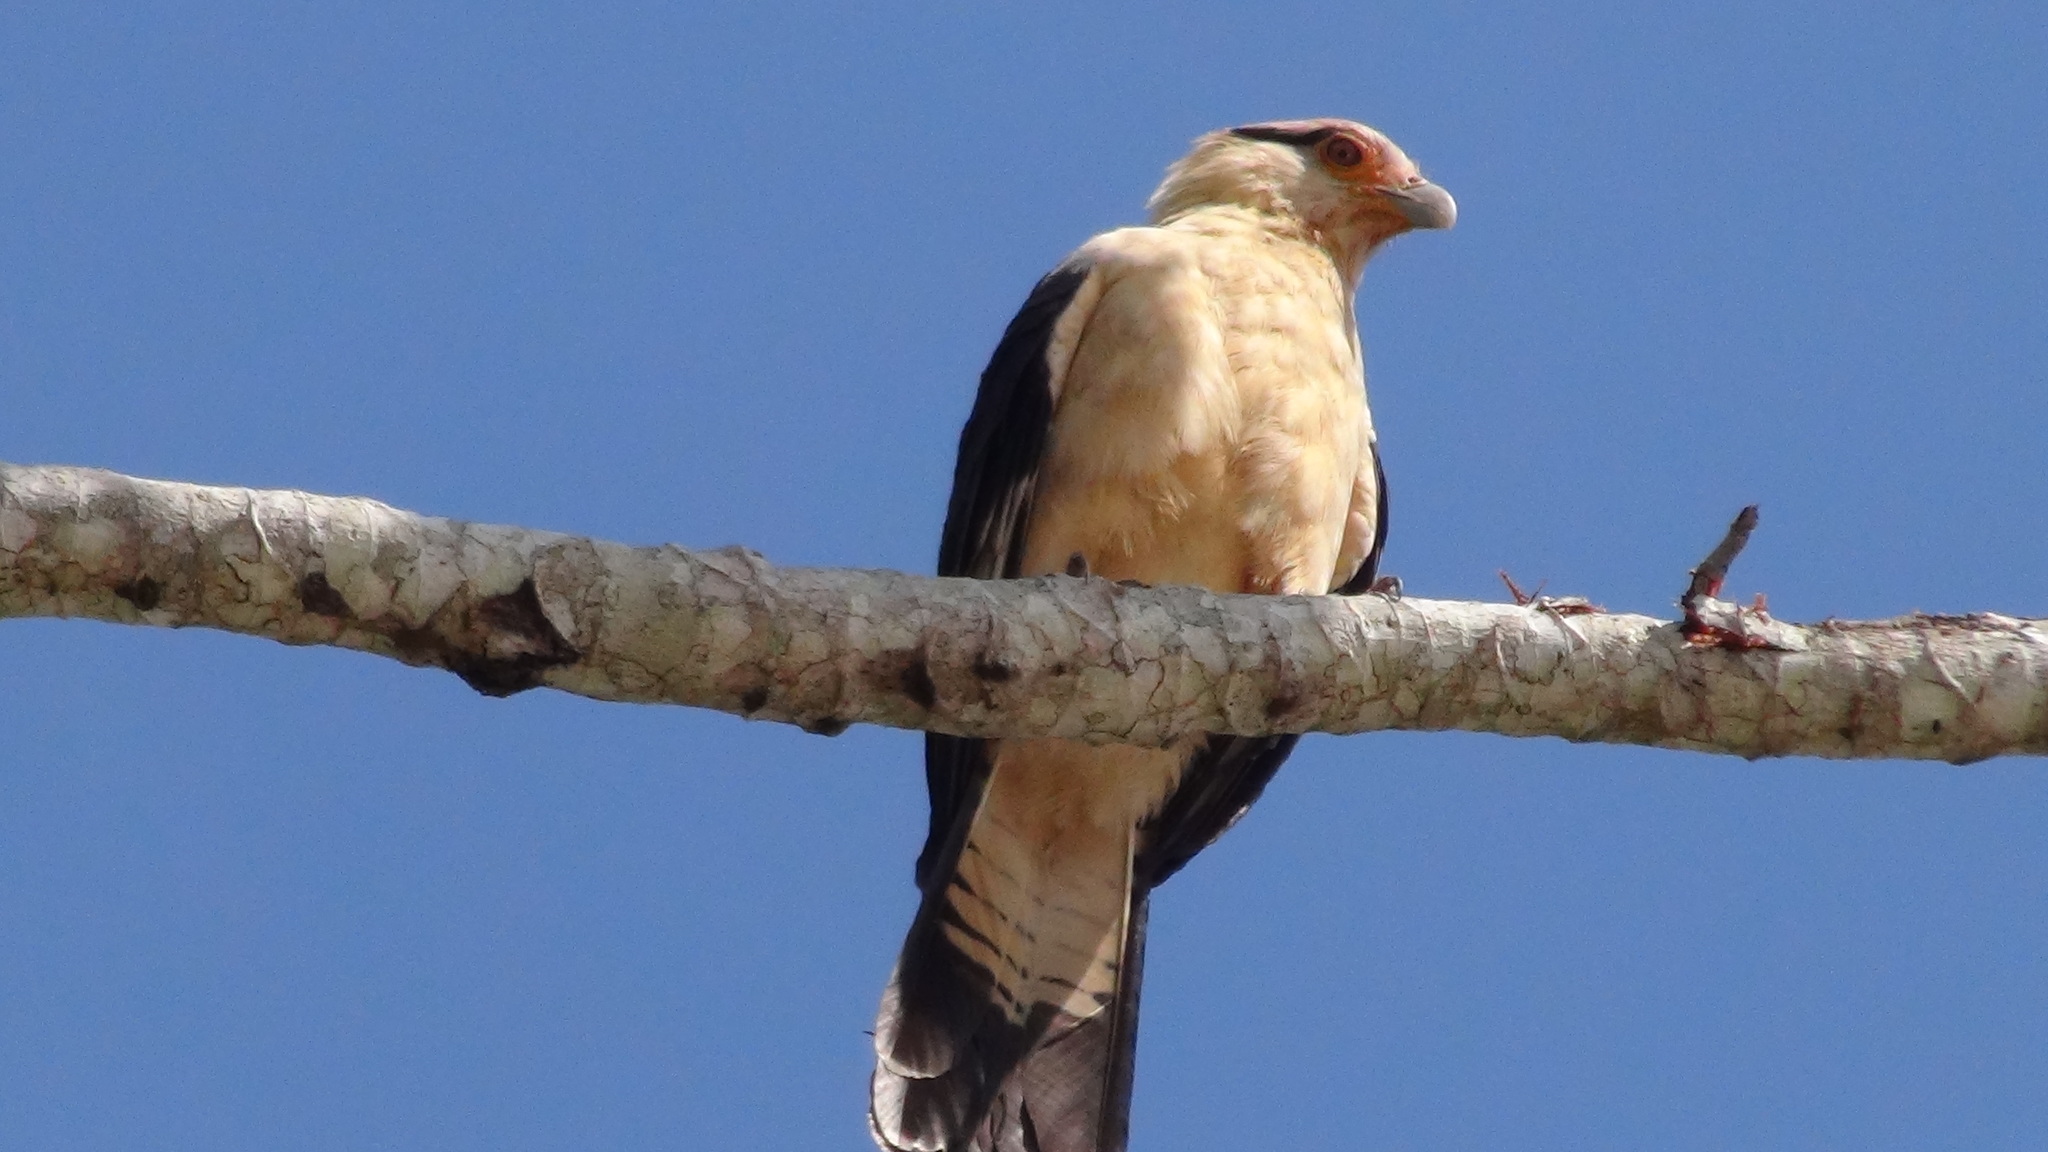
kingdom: Animalia
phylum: Chordata
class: Aves
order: Falconiformes
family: Falconidae
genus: Daptrius
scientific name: Daptrius
